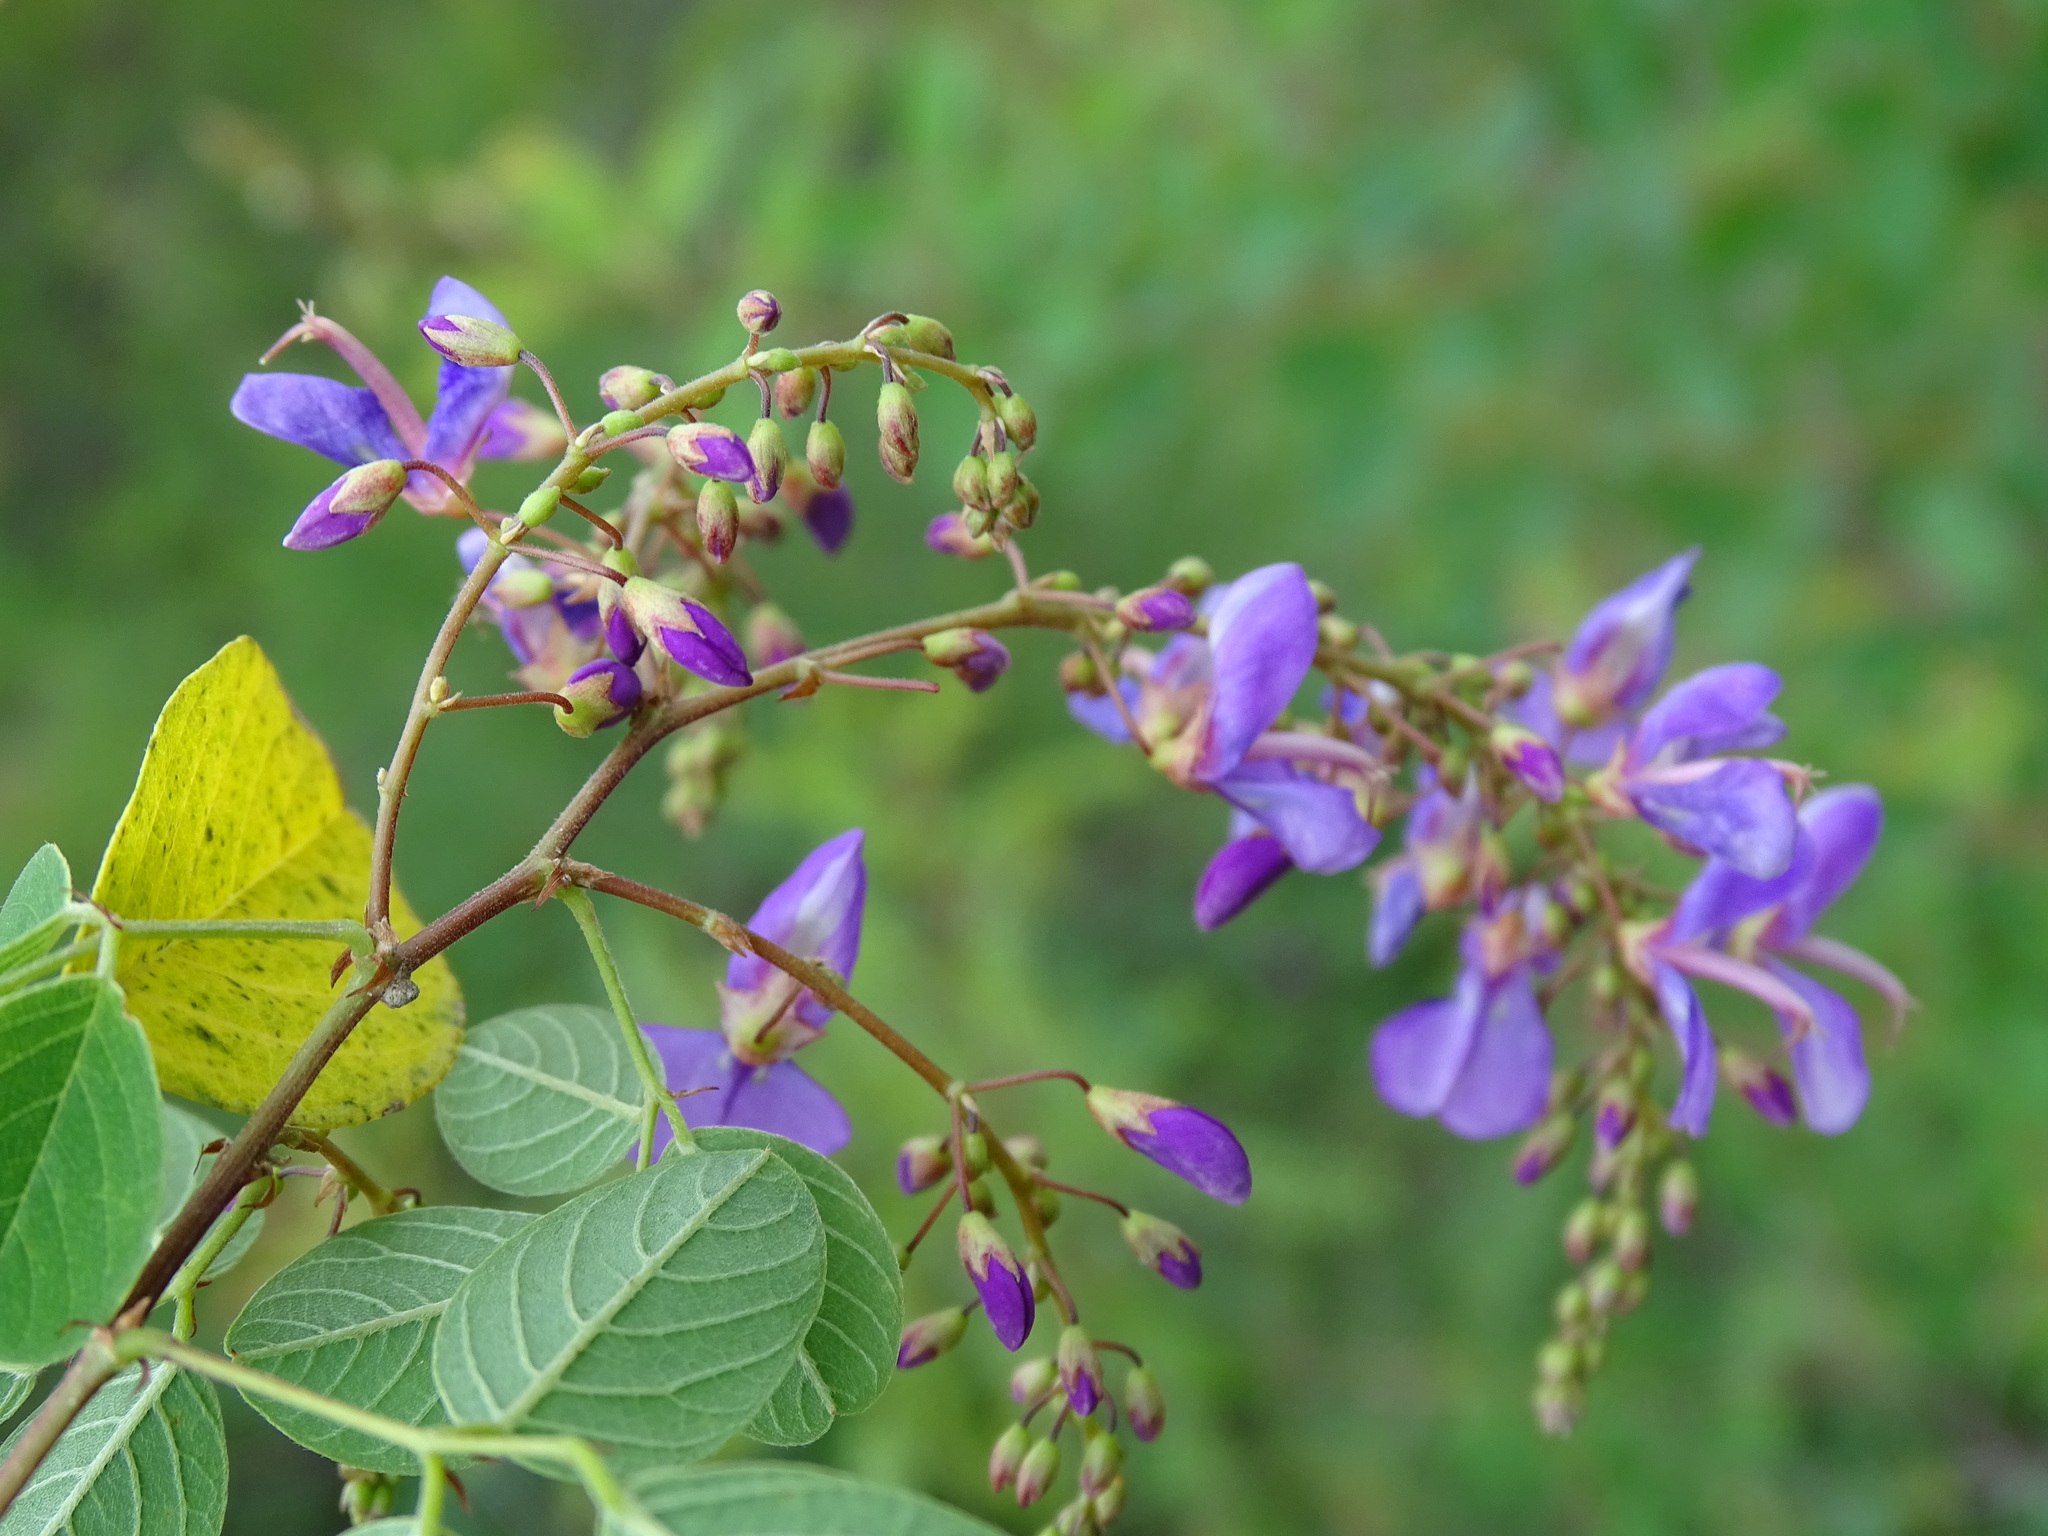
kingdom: Plantae
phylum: Tracheophyta
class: Magnoliopsida
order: Fabales
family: Fabaceae
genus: Desmodium
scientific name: Desmodium orbiculare
